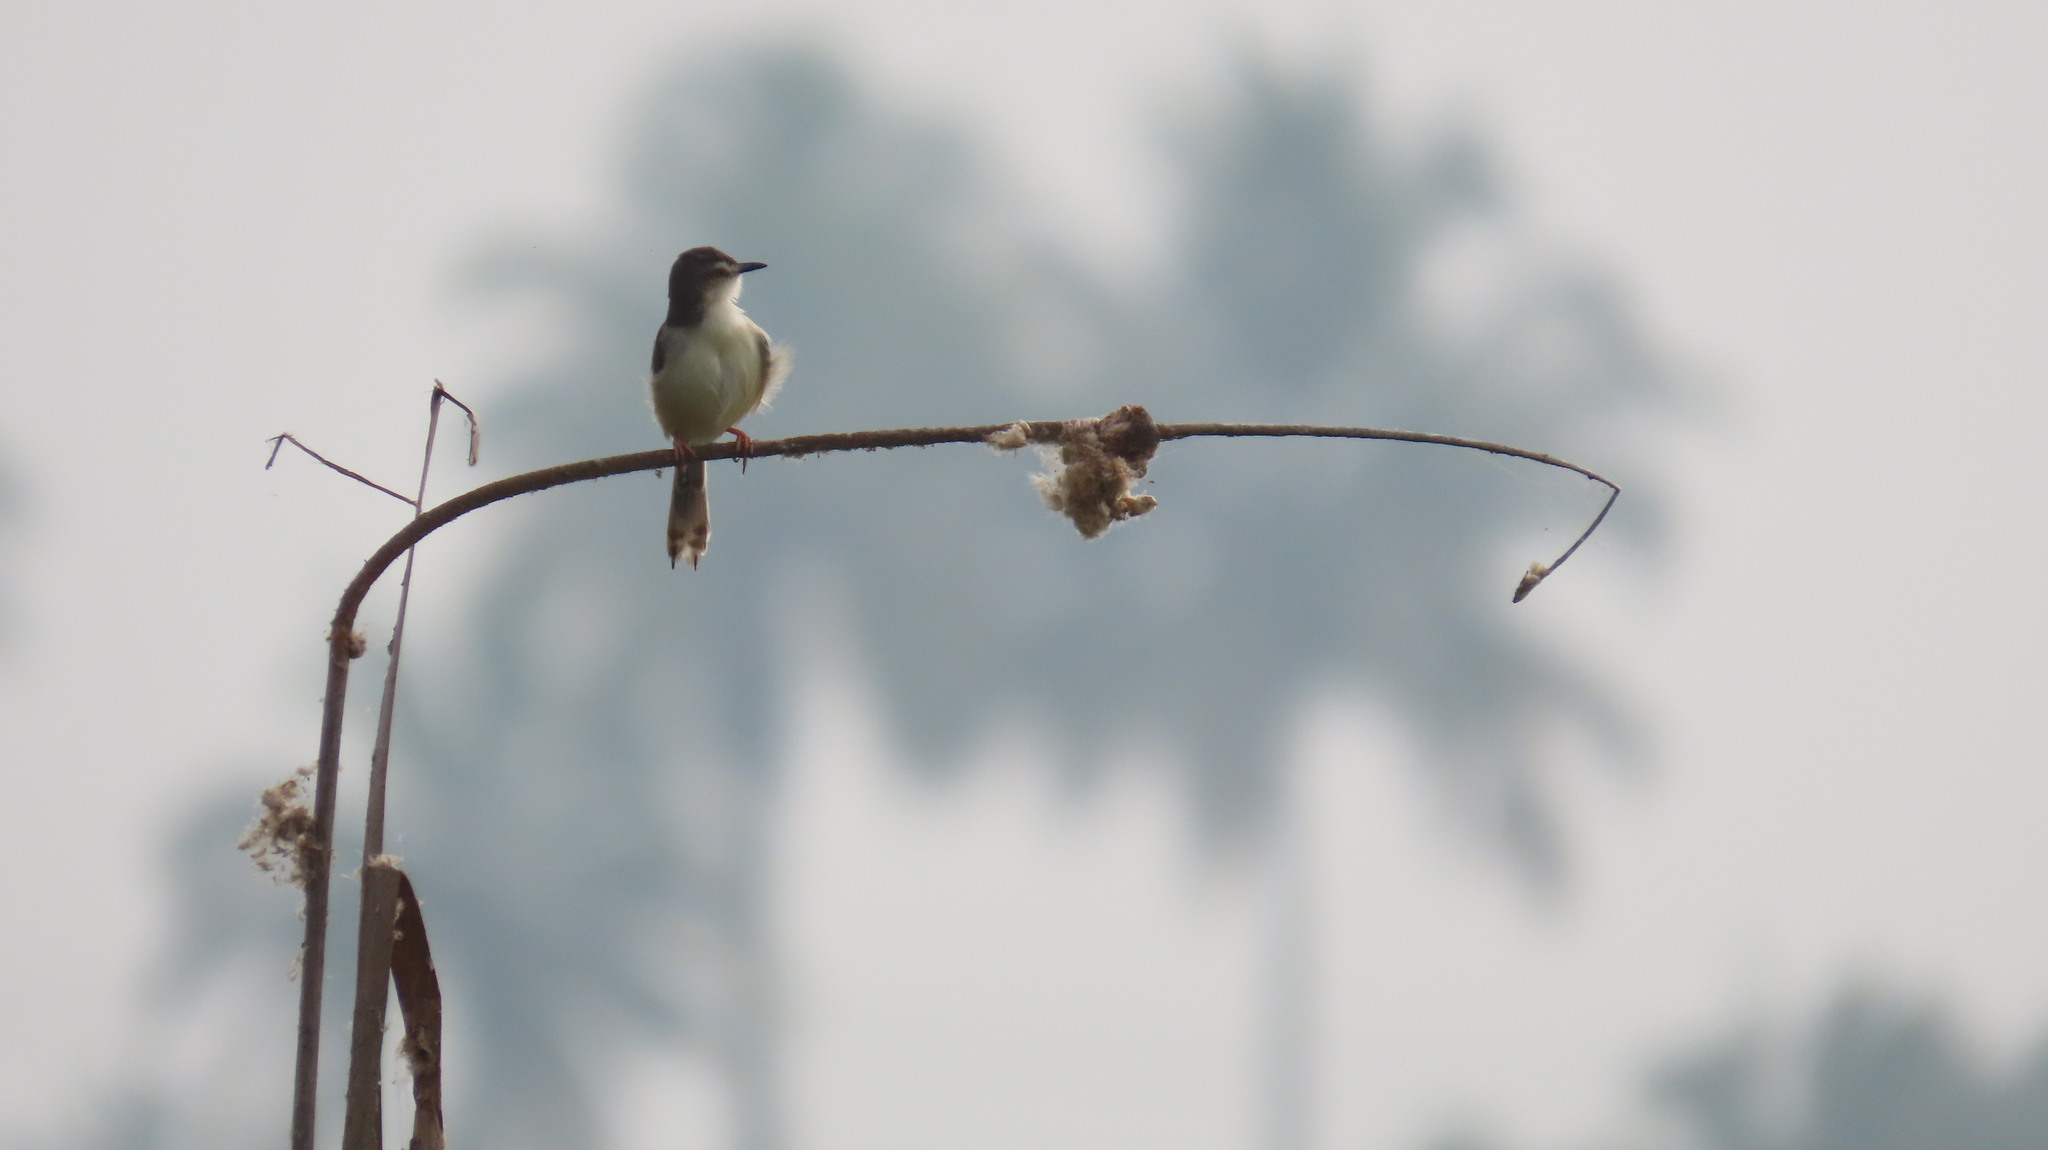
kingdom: Animalia
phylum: Chordata
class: Aves
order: Passeriformes
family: Cisticolidae
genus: Prinia
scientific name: Prinia inornata
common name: Plain prinia
